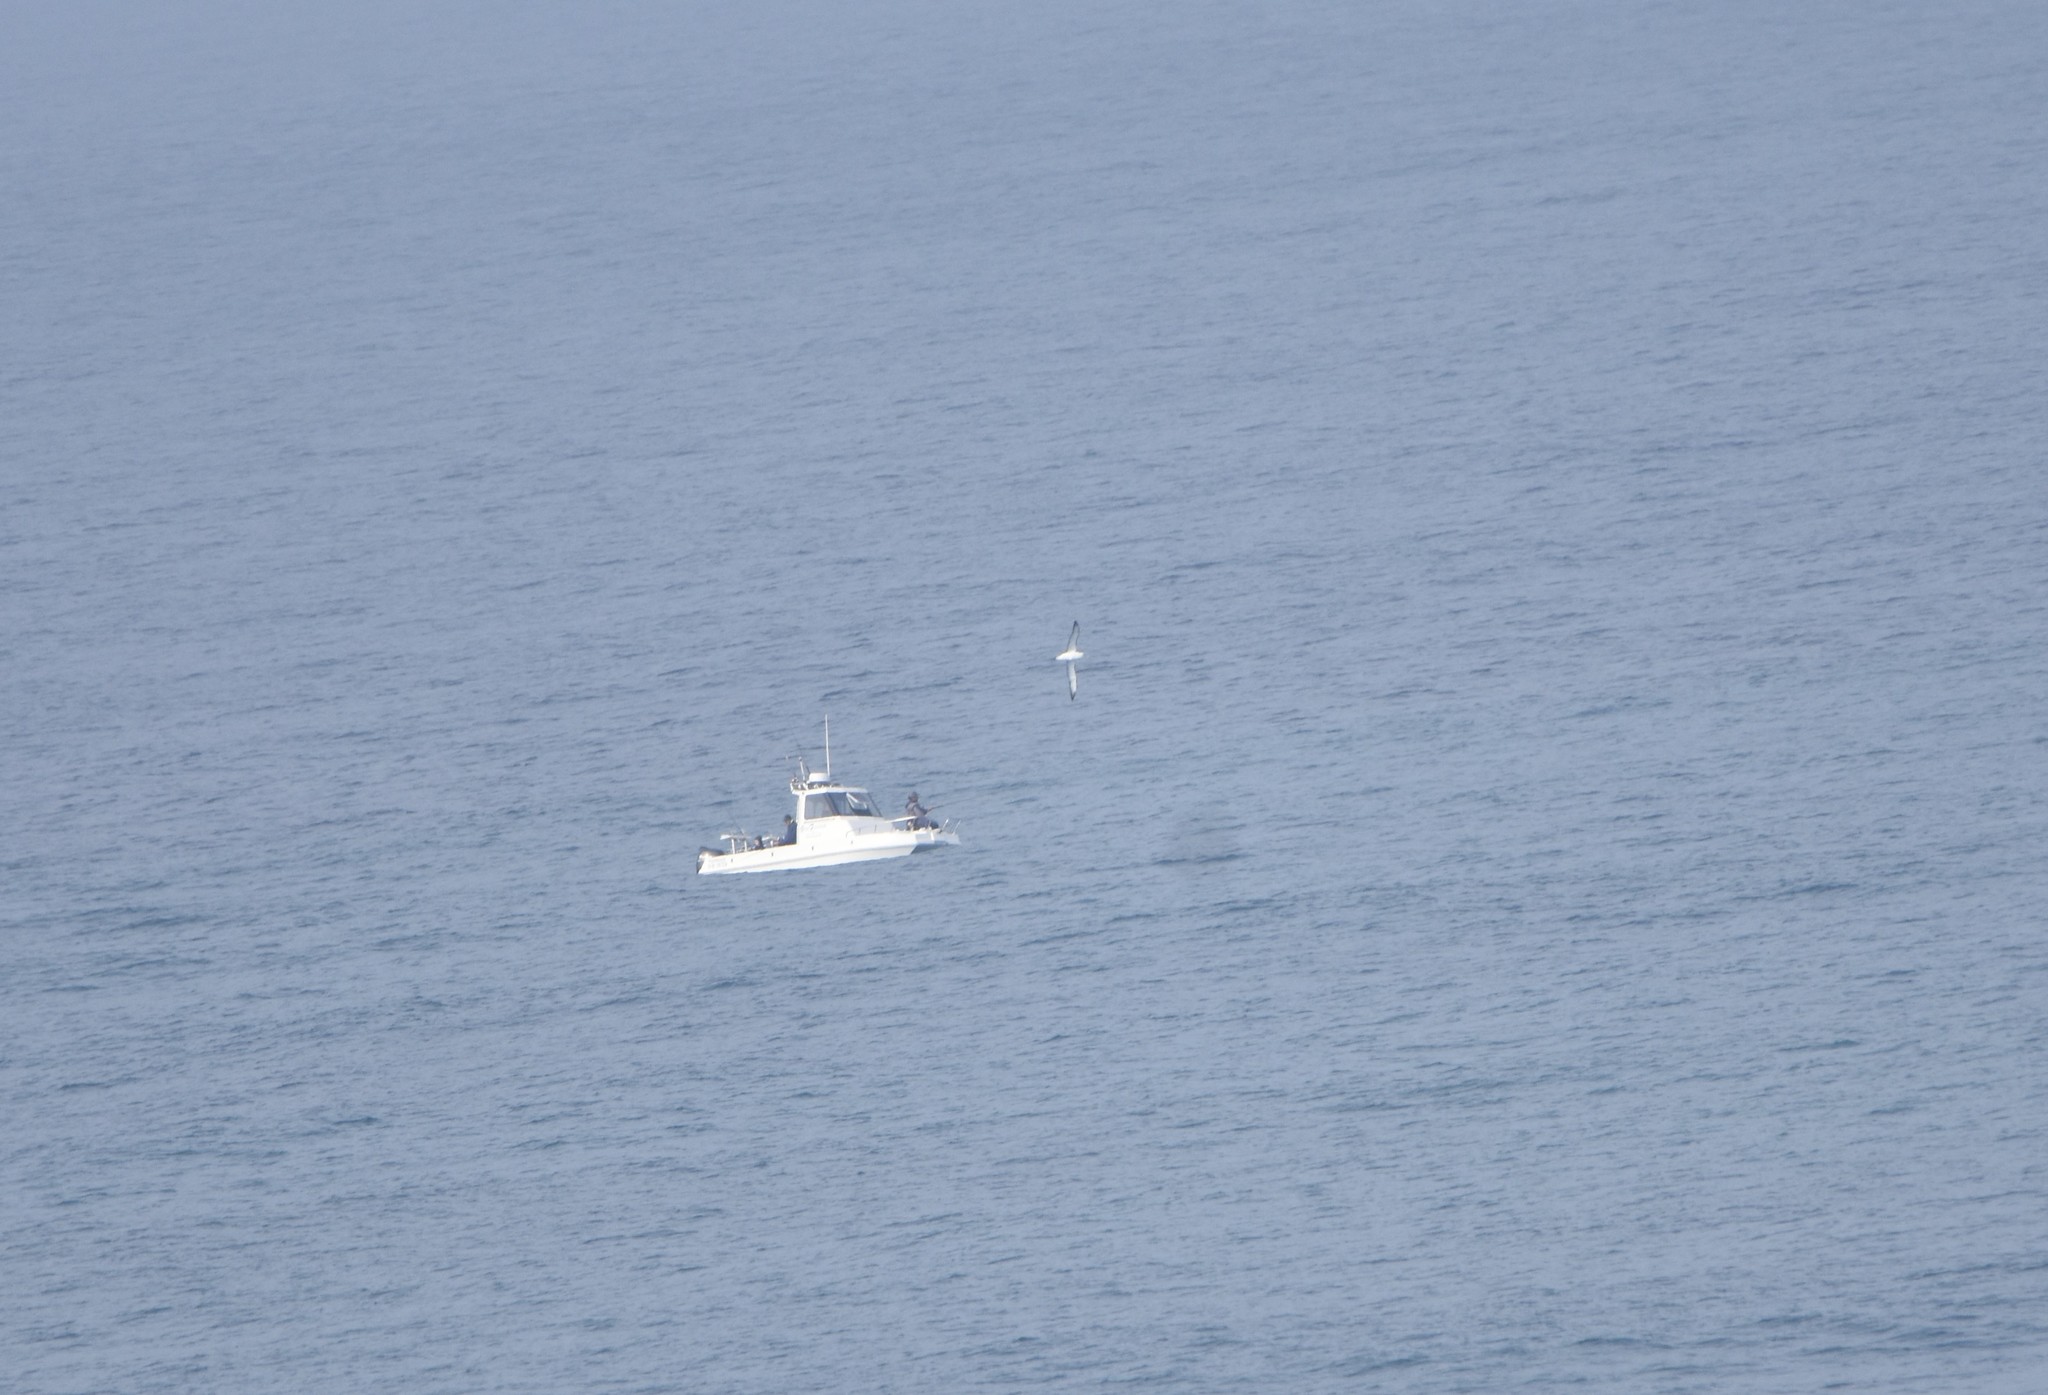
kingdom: Animalia
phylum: Chordata
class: Aves
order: Procellariiformes
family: Diomedeidae
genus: Thalassarche
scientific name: Thalassarche cauta
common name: Shy albatross
